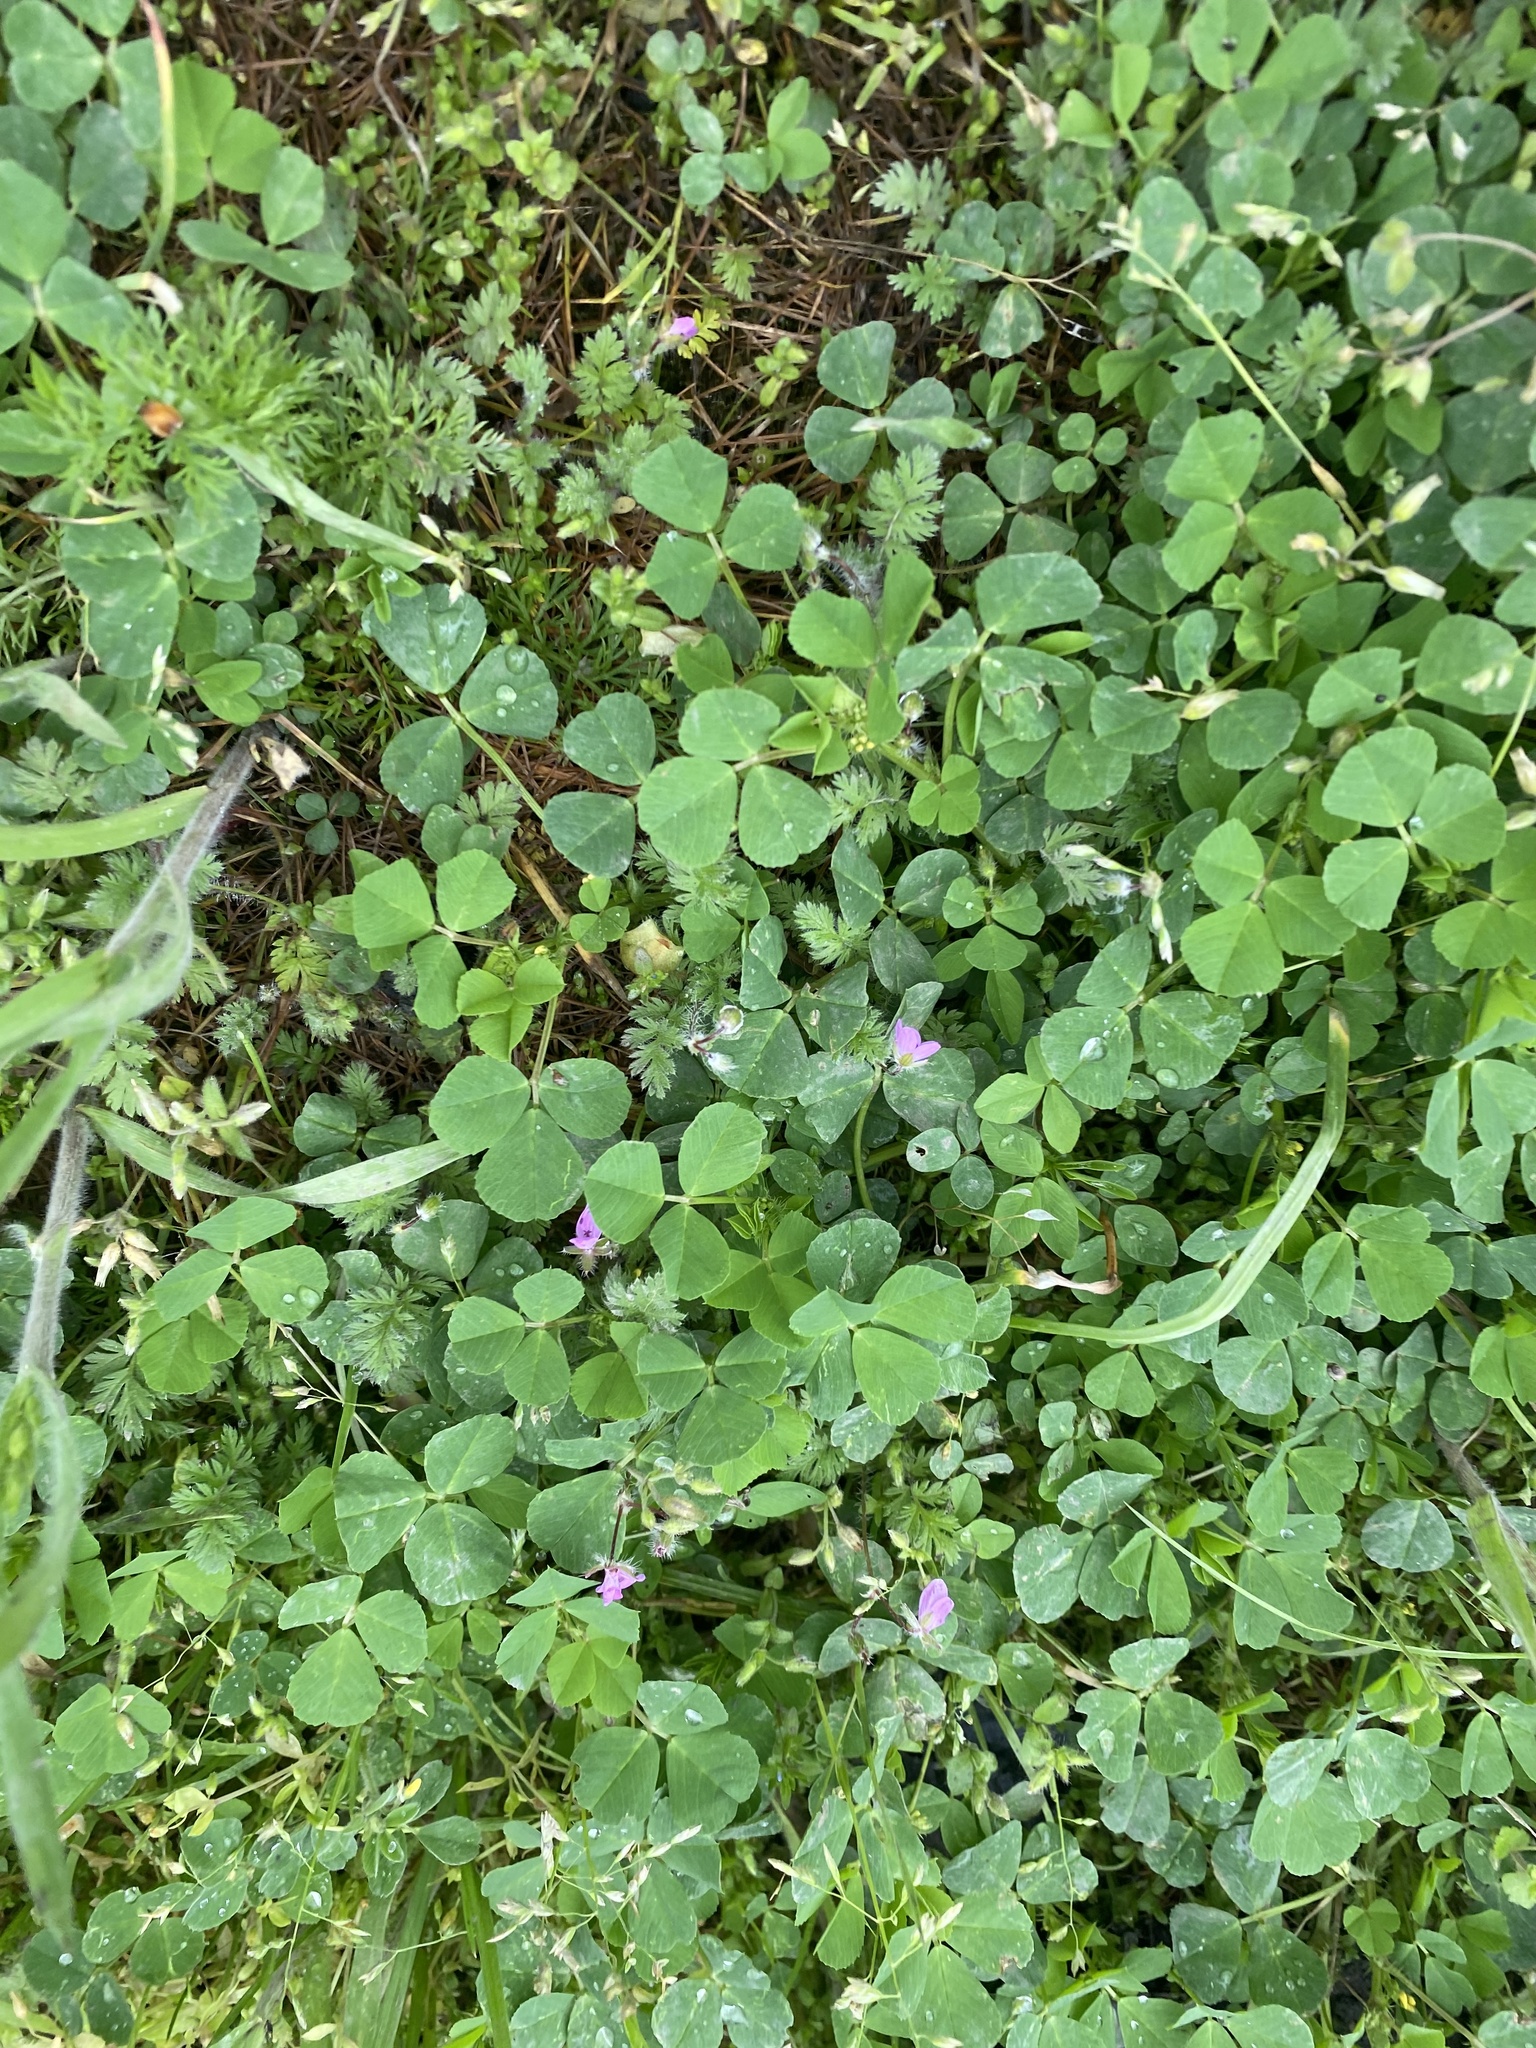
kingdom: Plantae
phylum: Tracheophyta
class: Magnoliopsida
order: Geraniales
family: Geraniaceae
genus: Erodium
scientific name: Erodium cicutarium
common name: Common stork's-bill
